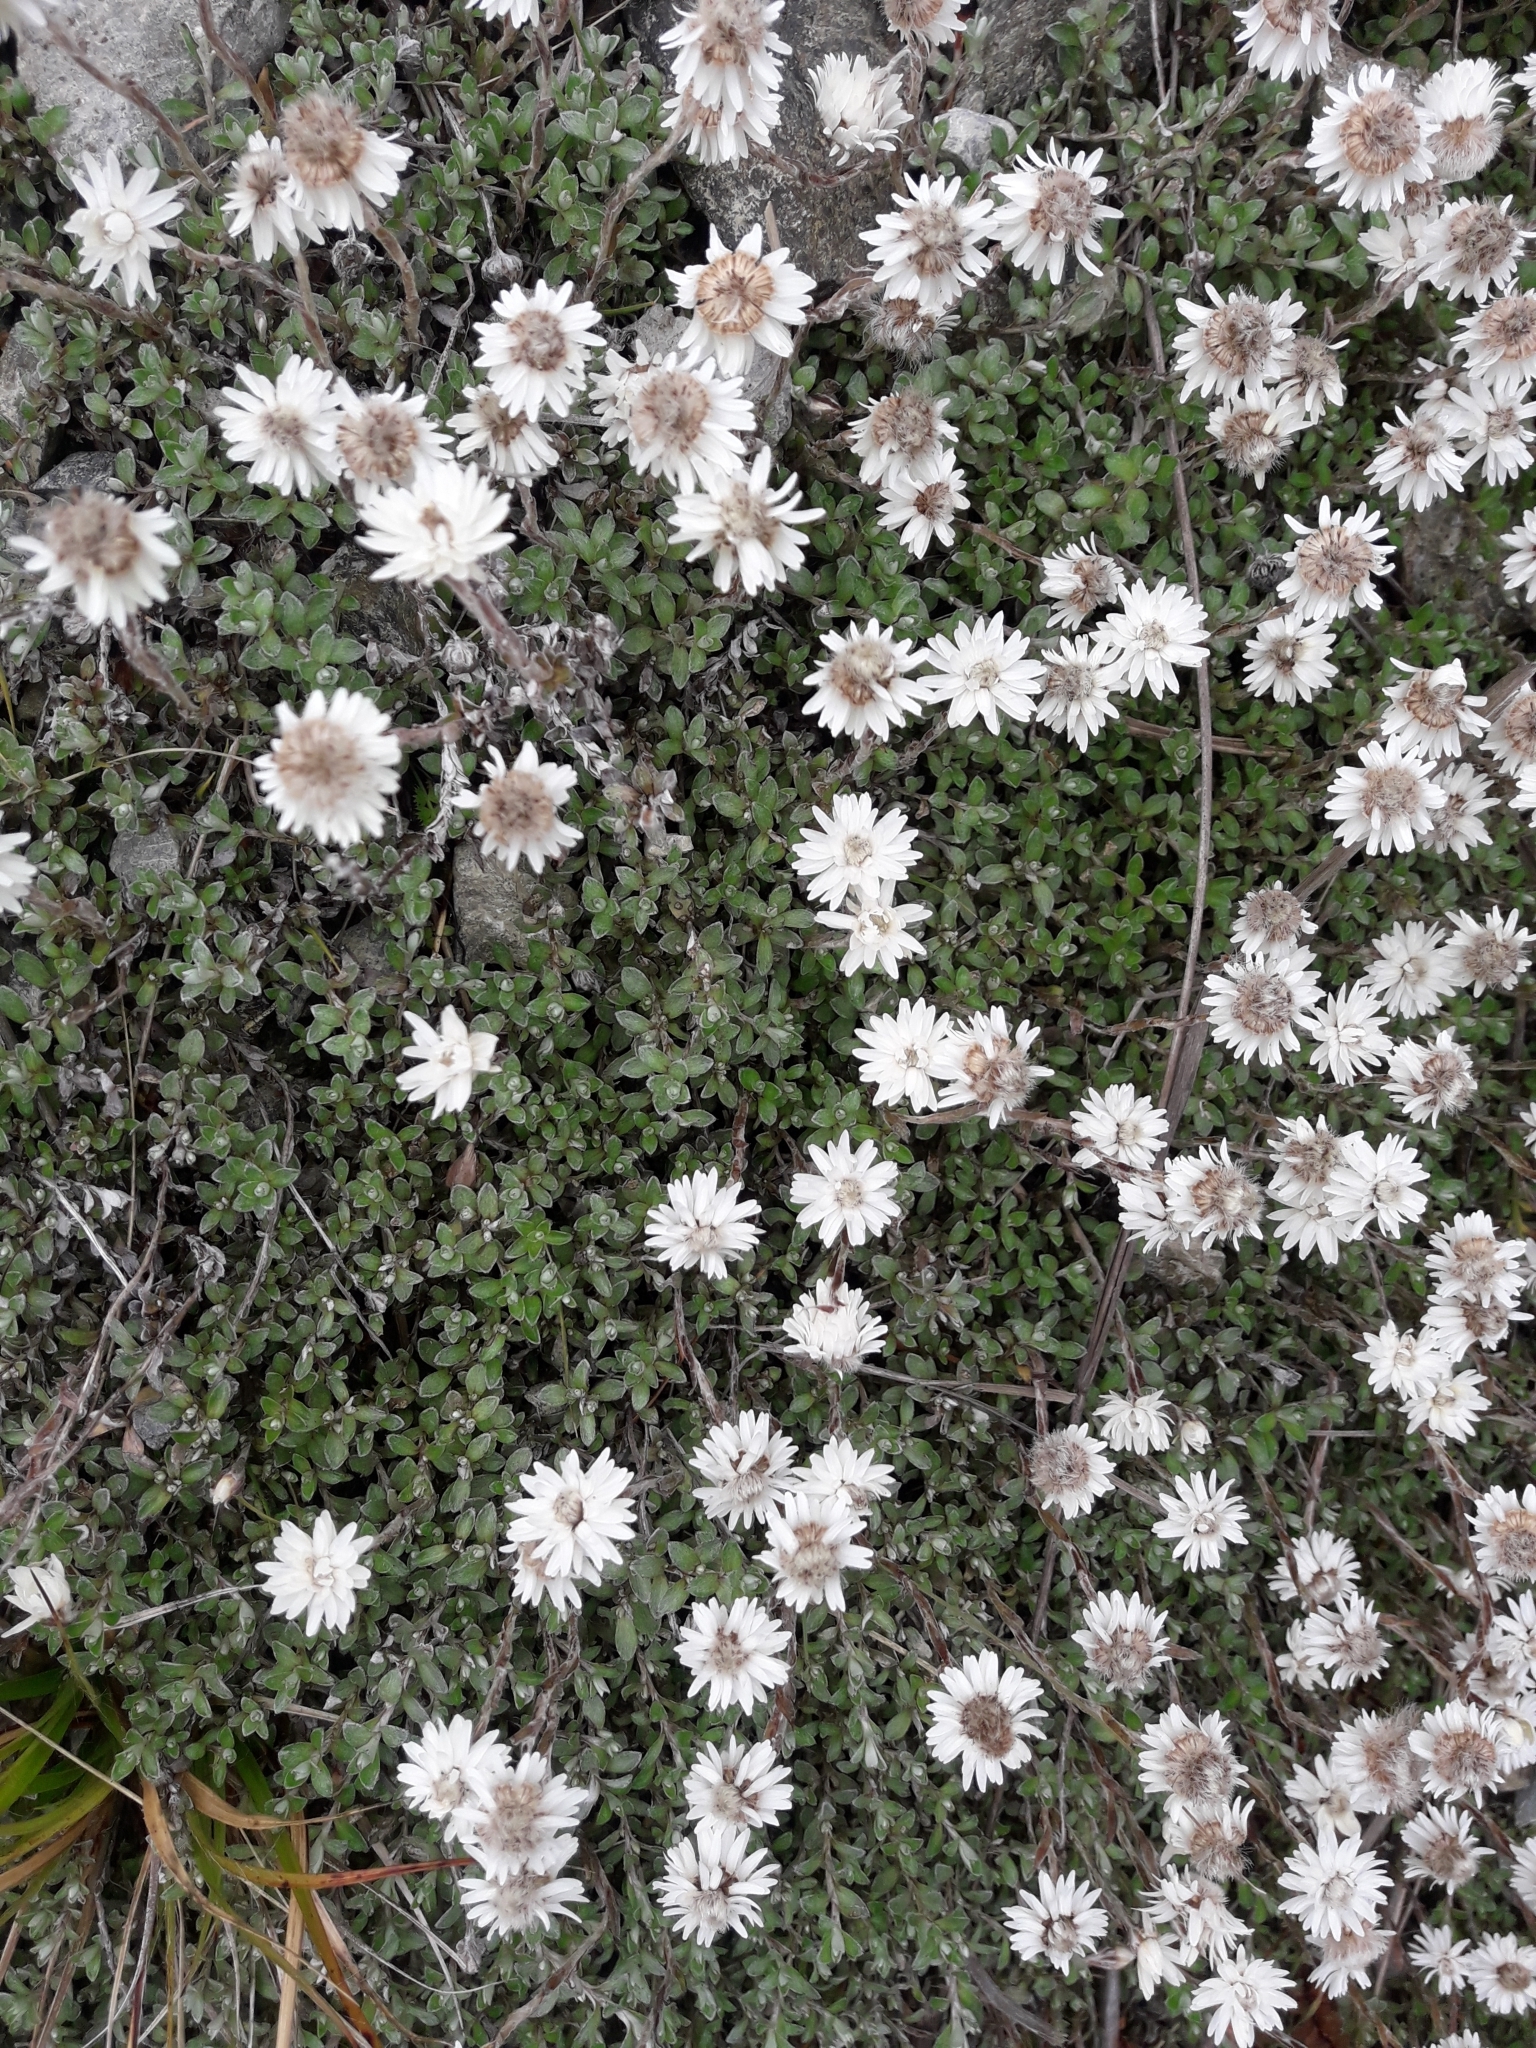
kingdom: Plantae
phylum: Tracheophyta
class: Magnoliopsida
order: Asterales
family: Asteraceae
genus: Anaphalioides
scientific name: Anaphalioides bellidioides
